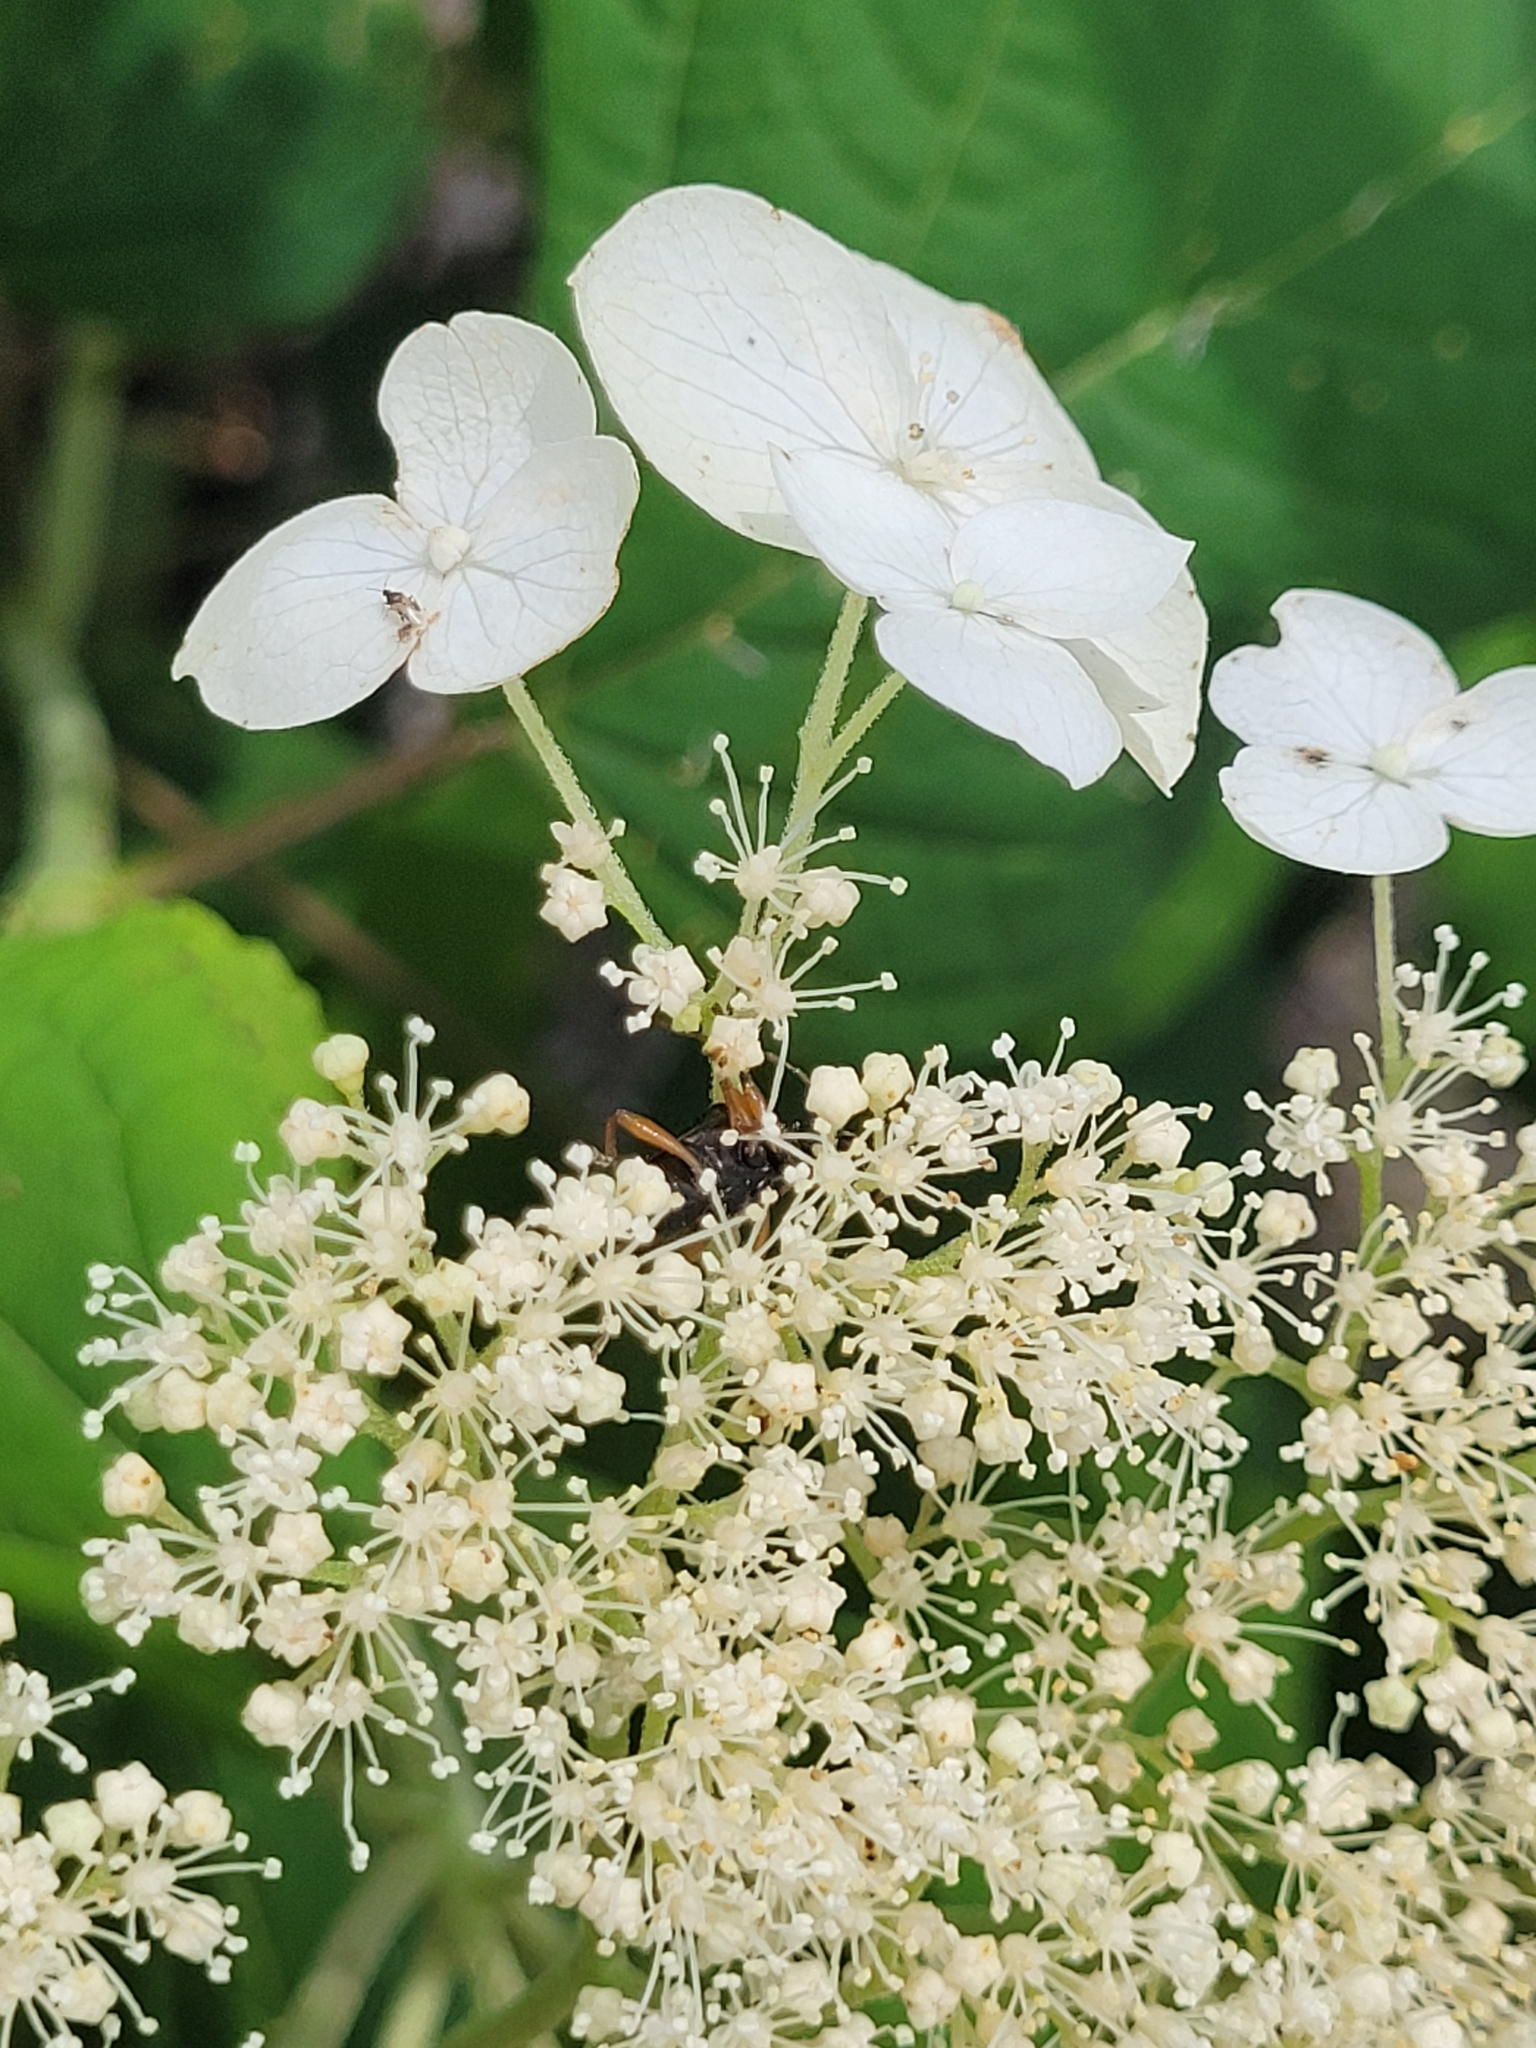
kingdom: Animalia
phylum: Arthropoda
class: Insecta
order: Coleoptera
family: Cerambycidae
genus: Gaurotes
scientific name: Gaurotes cyanipennis
